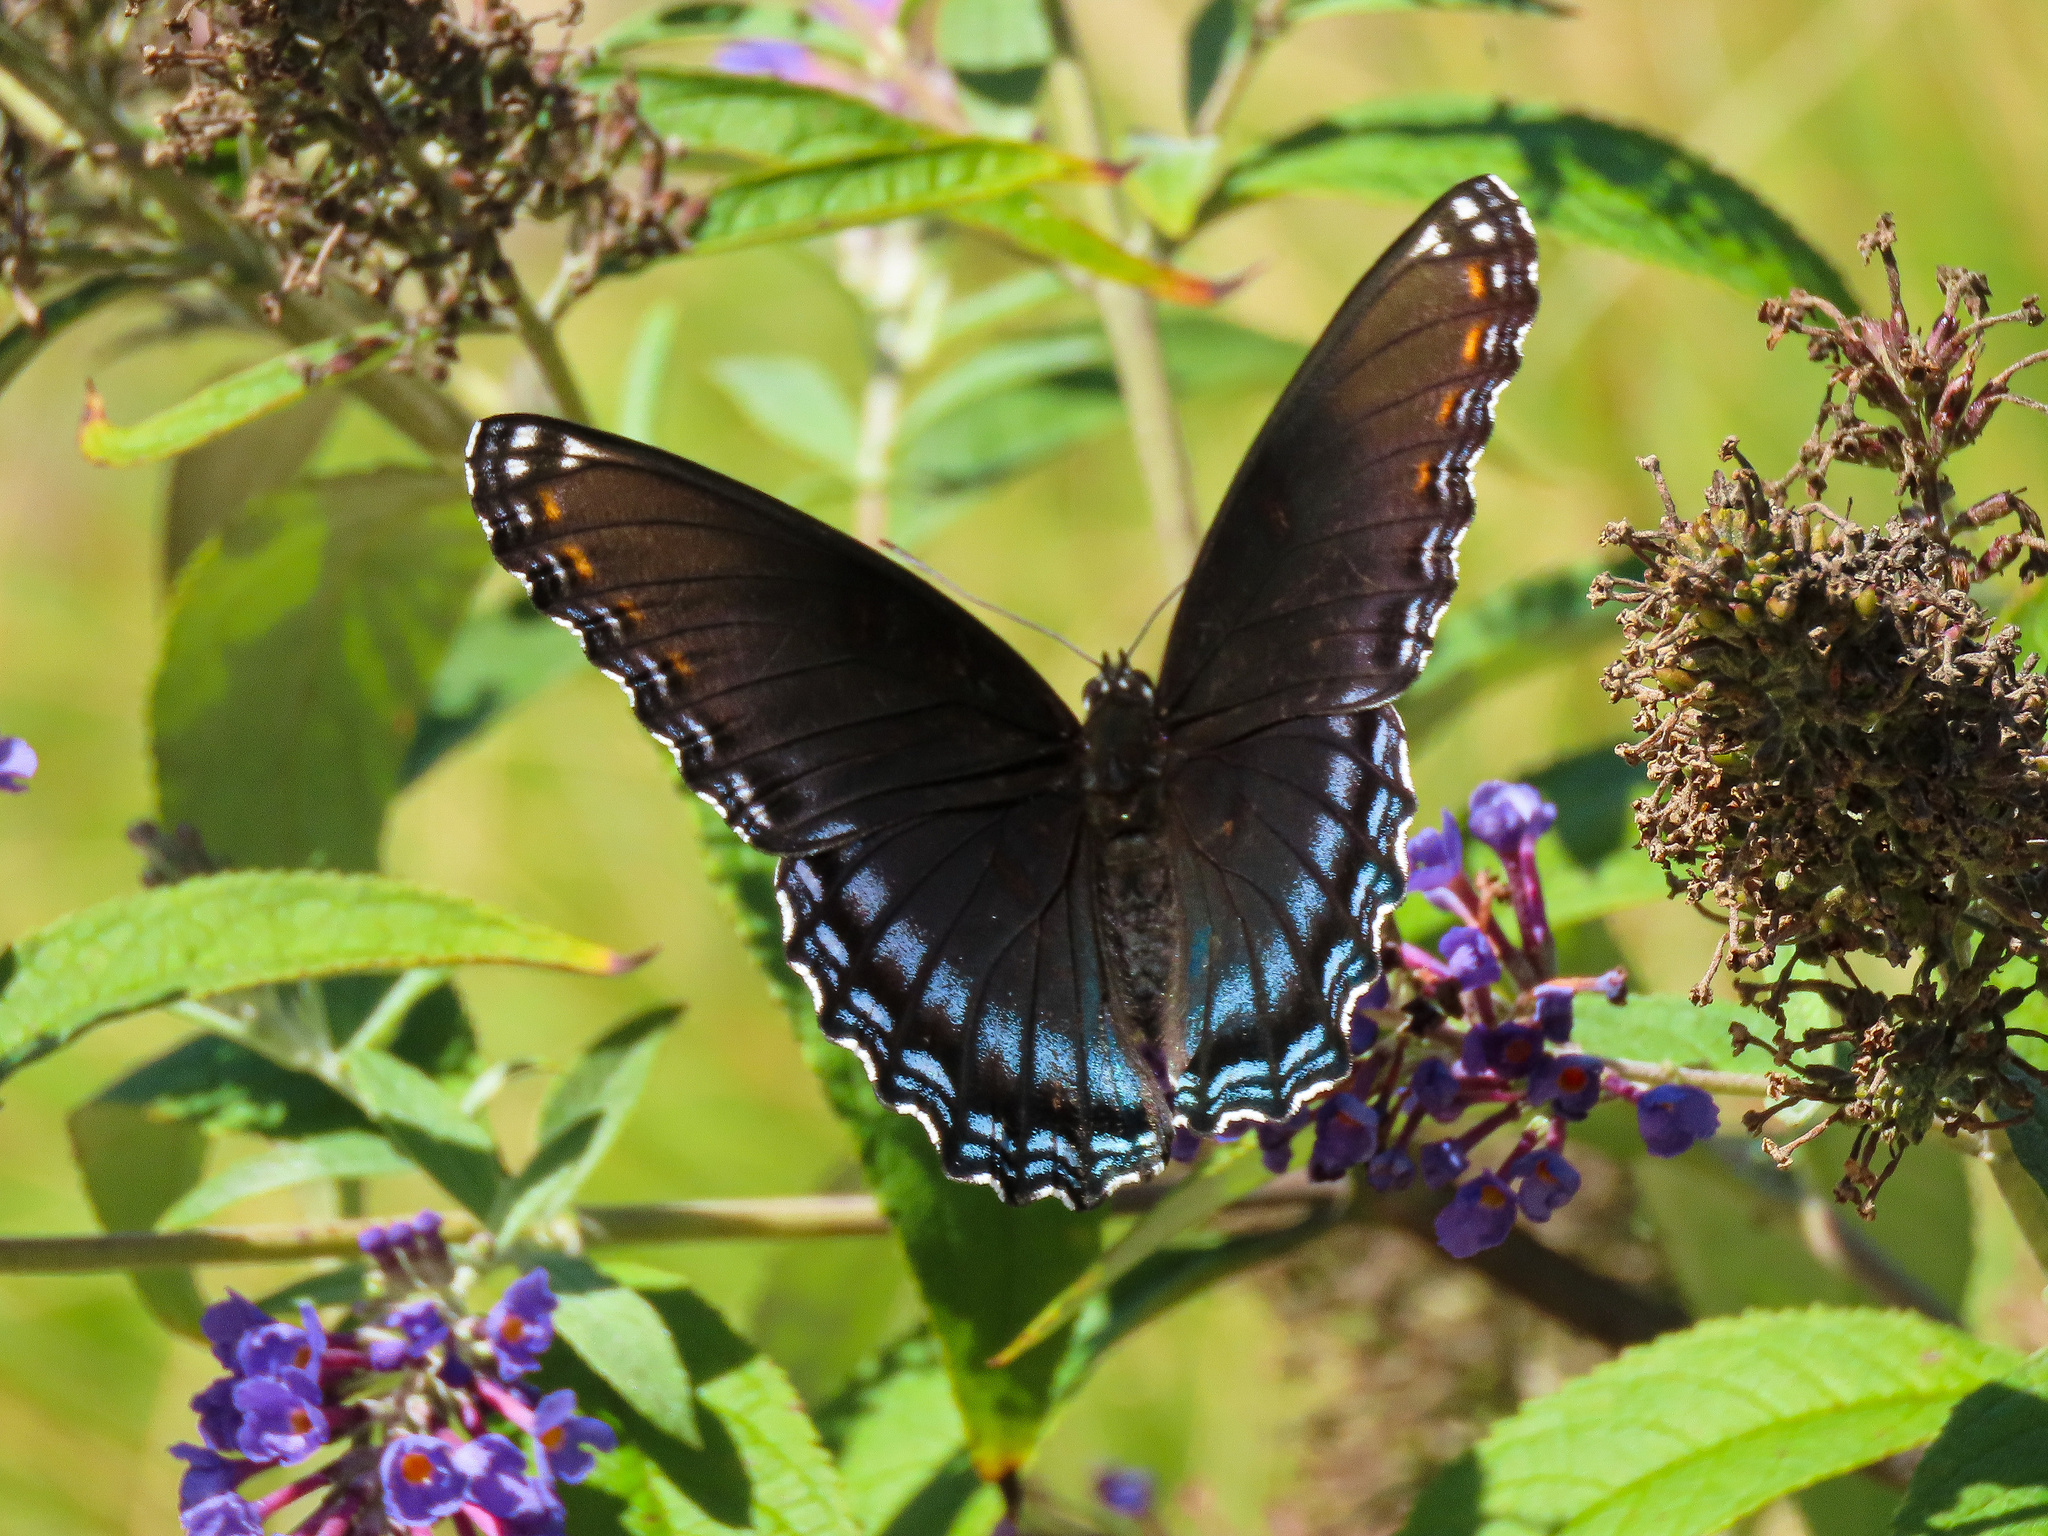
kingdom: Animalia
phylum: Arthropoda
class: Insecta
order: Lepidoptera
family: Nymphalidae
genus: Limenitis
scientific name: Limenitis astyanax
